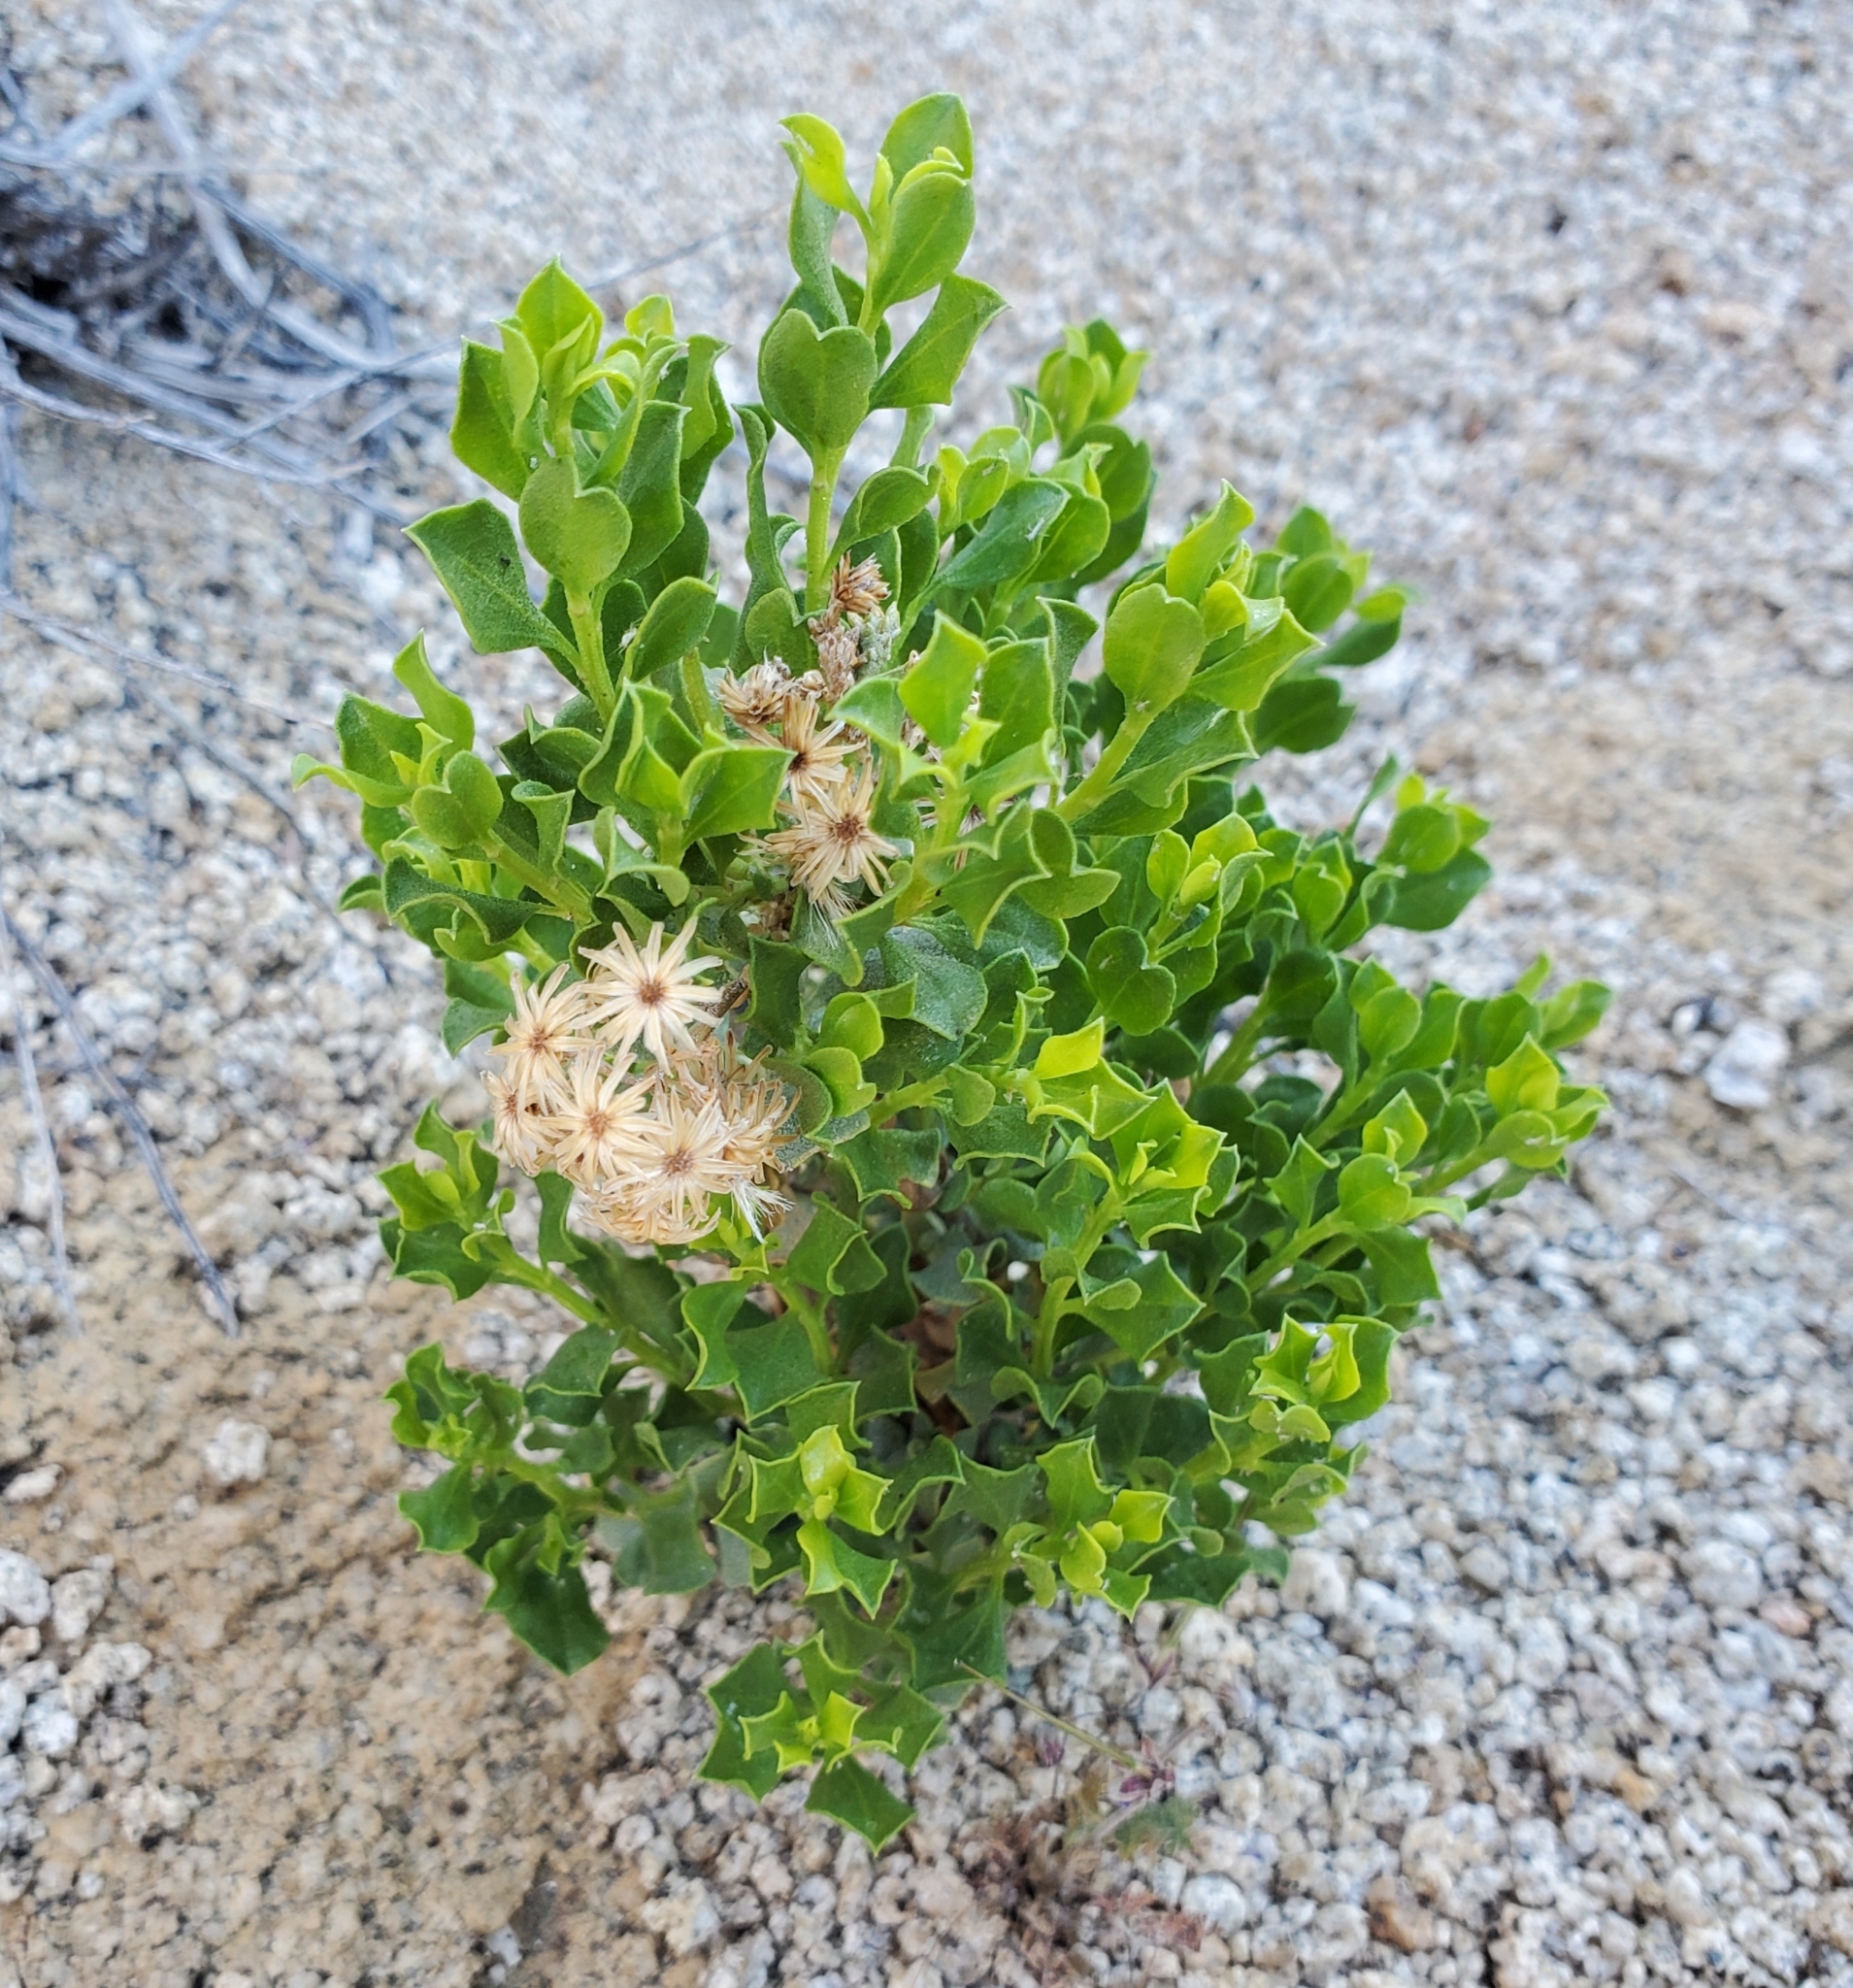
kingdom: Plantae
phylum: Tracheophyta
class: Magnoliopsida
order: Asterales
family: Asteraceae
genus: Ericameria
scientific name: Ericameria cuneata
